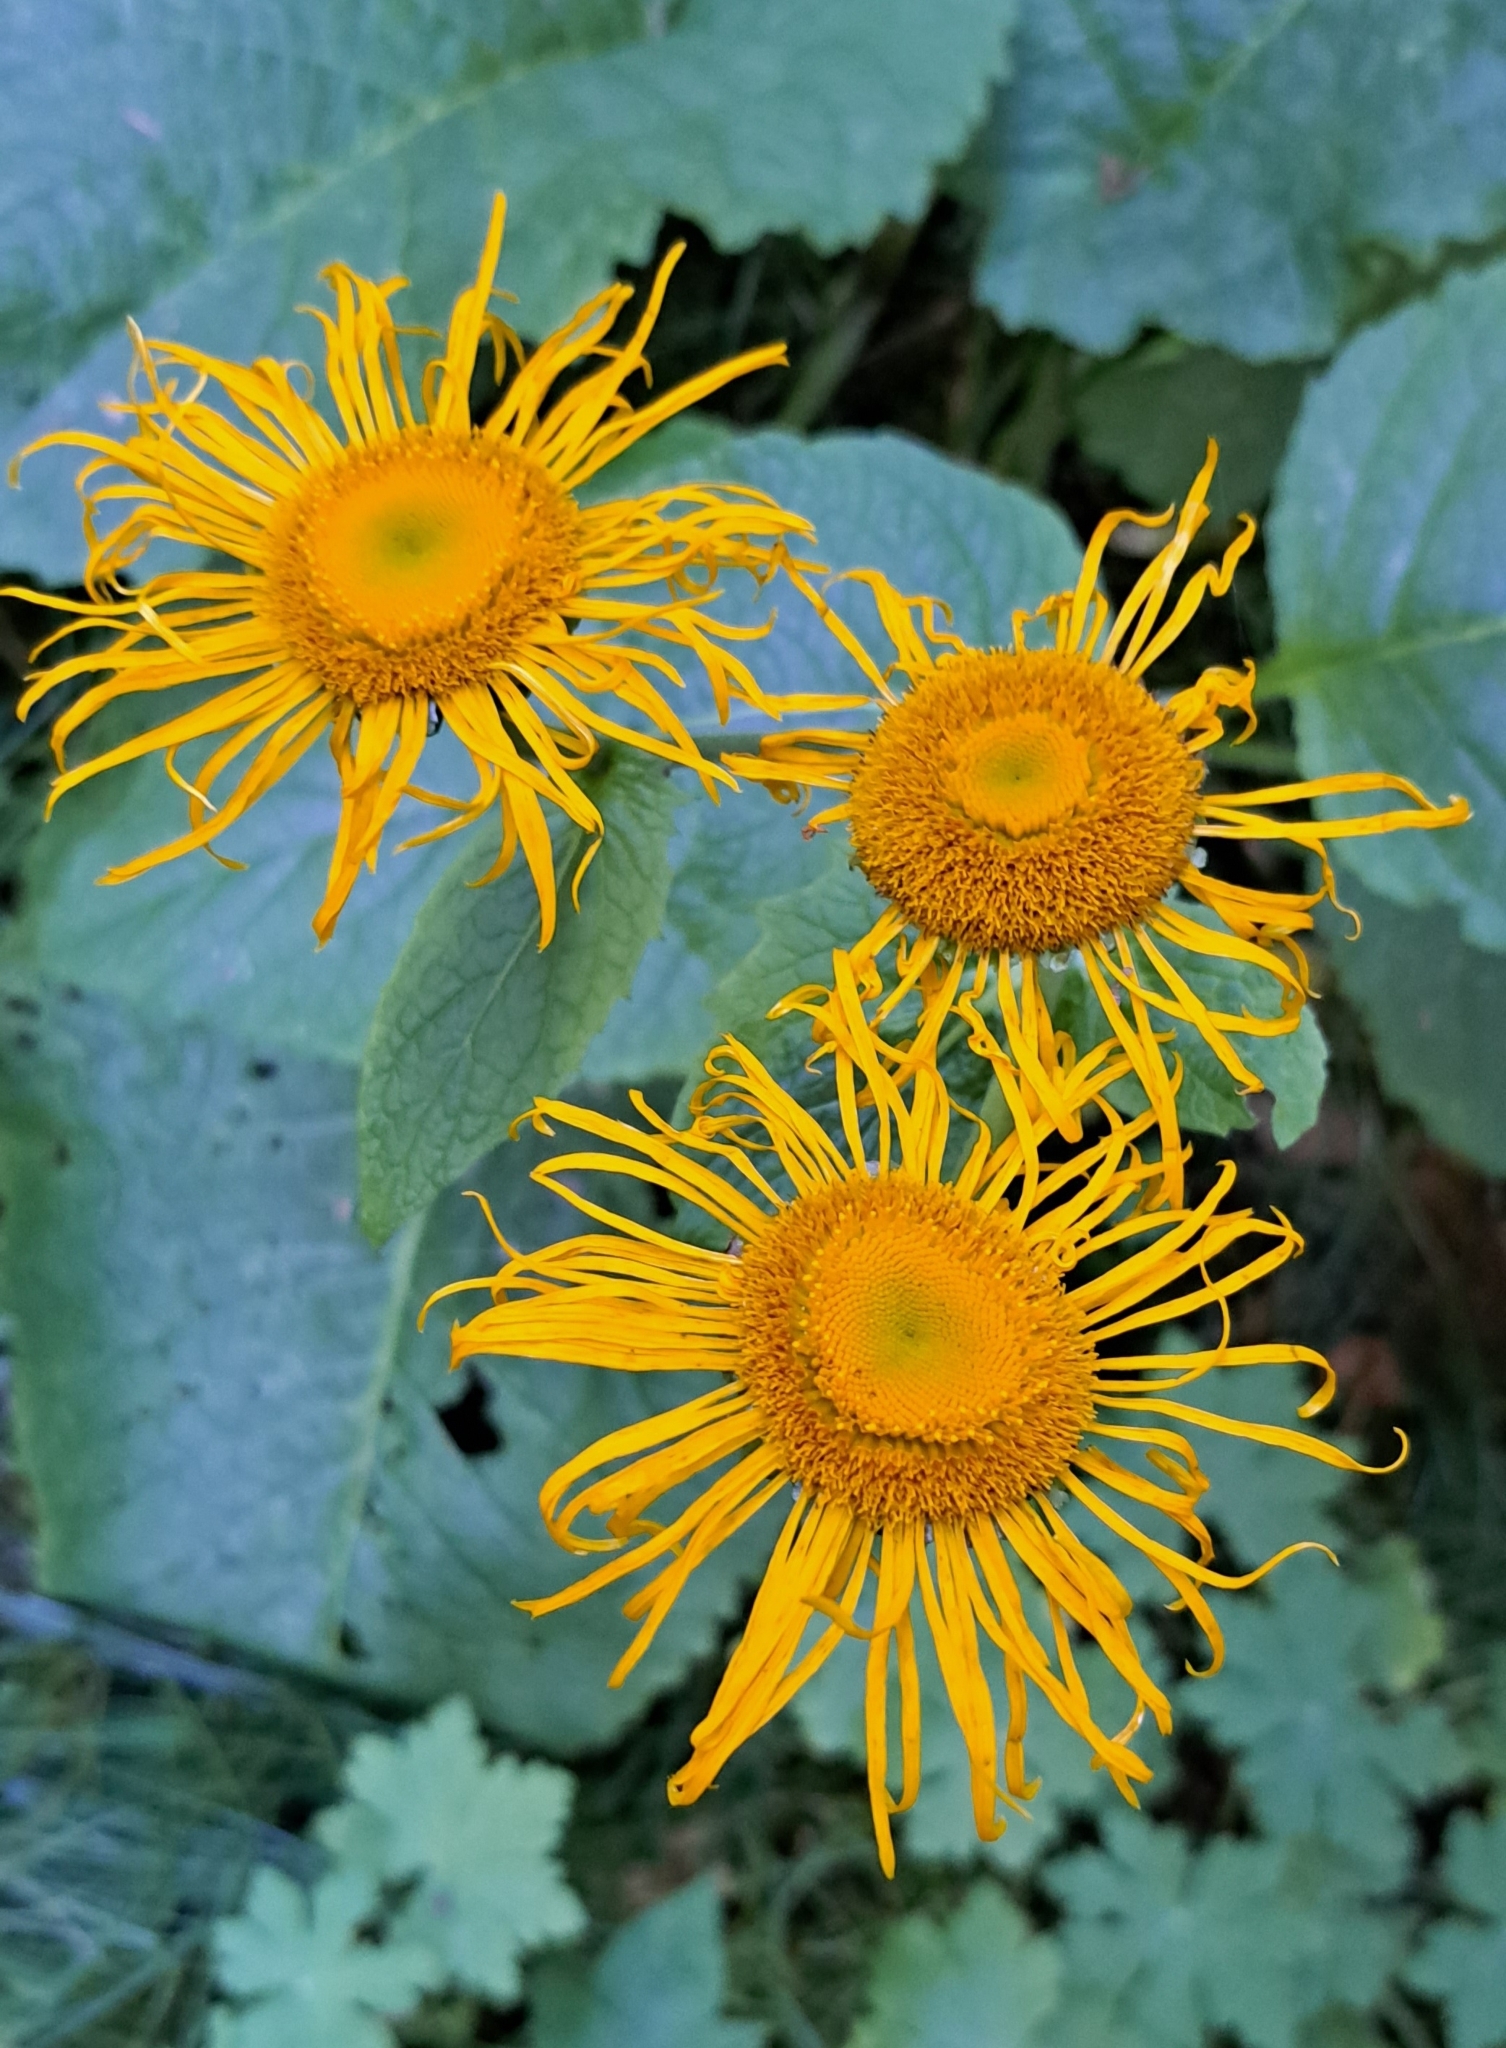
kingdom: Plantae
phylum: Tracheophyta
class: Magnoliopsida
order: Asterales
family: Asteraceae
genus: Telekia
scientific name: Telekia speciosa
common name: Yellow oxeye
